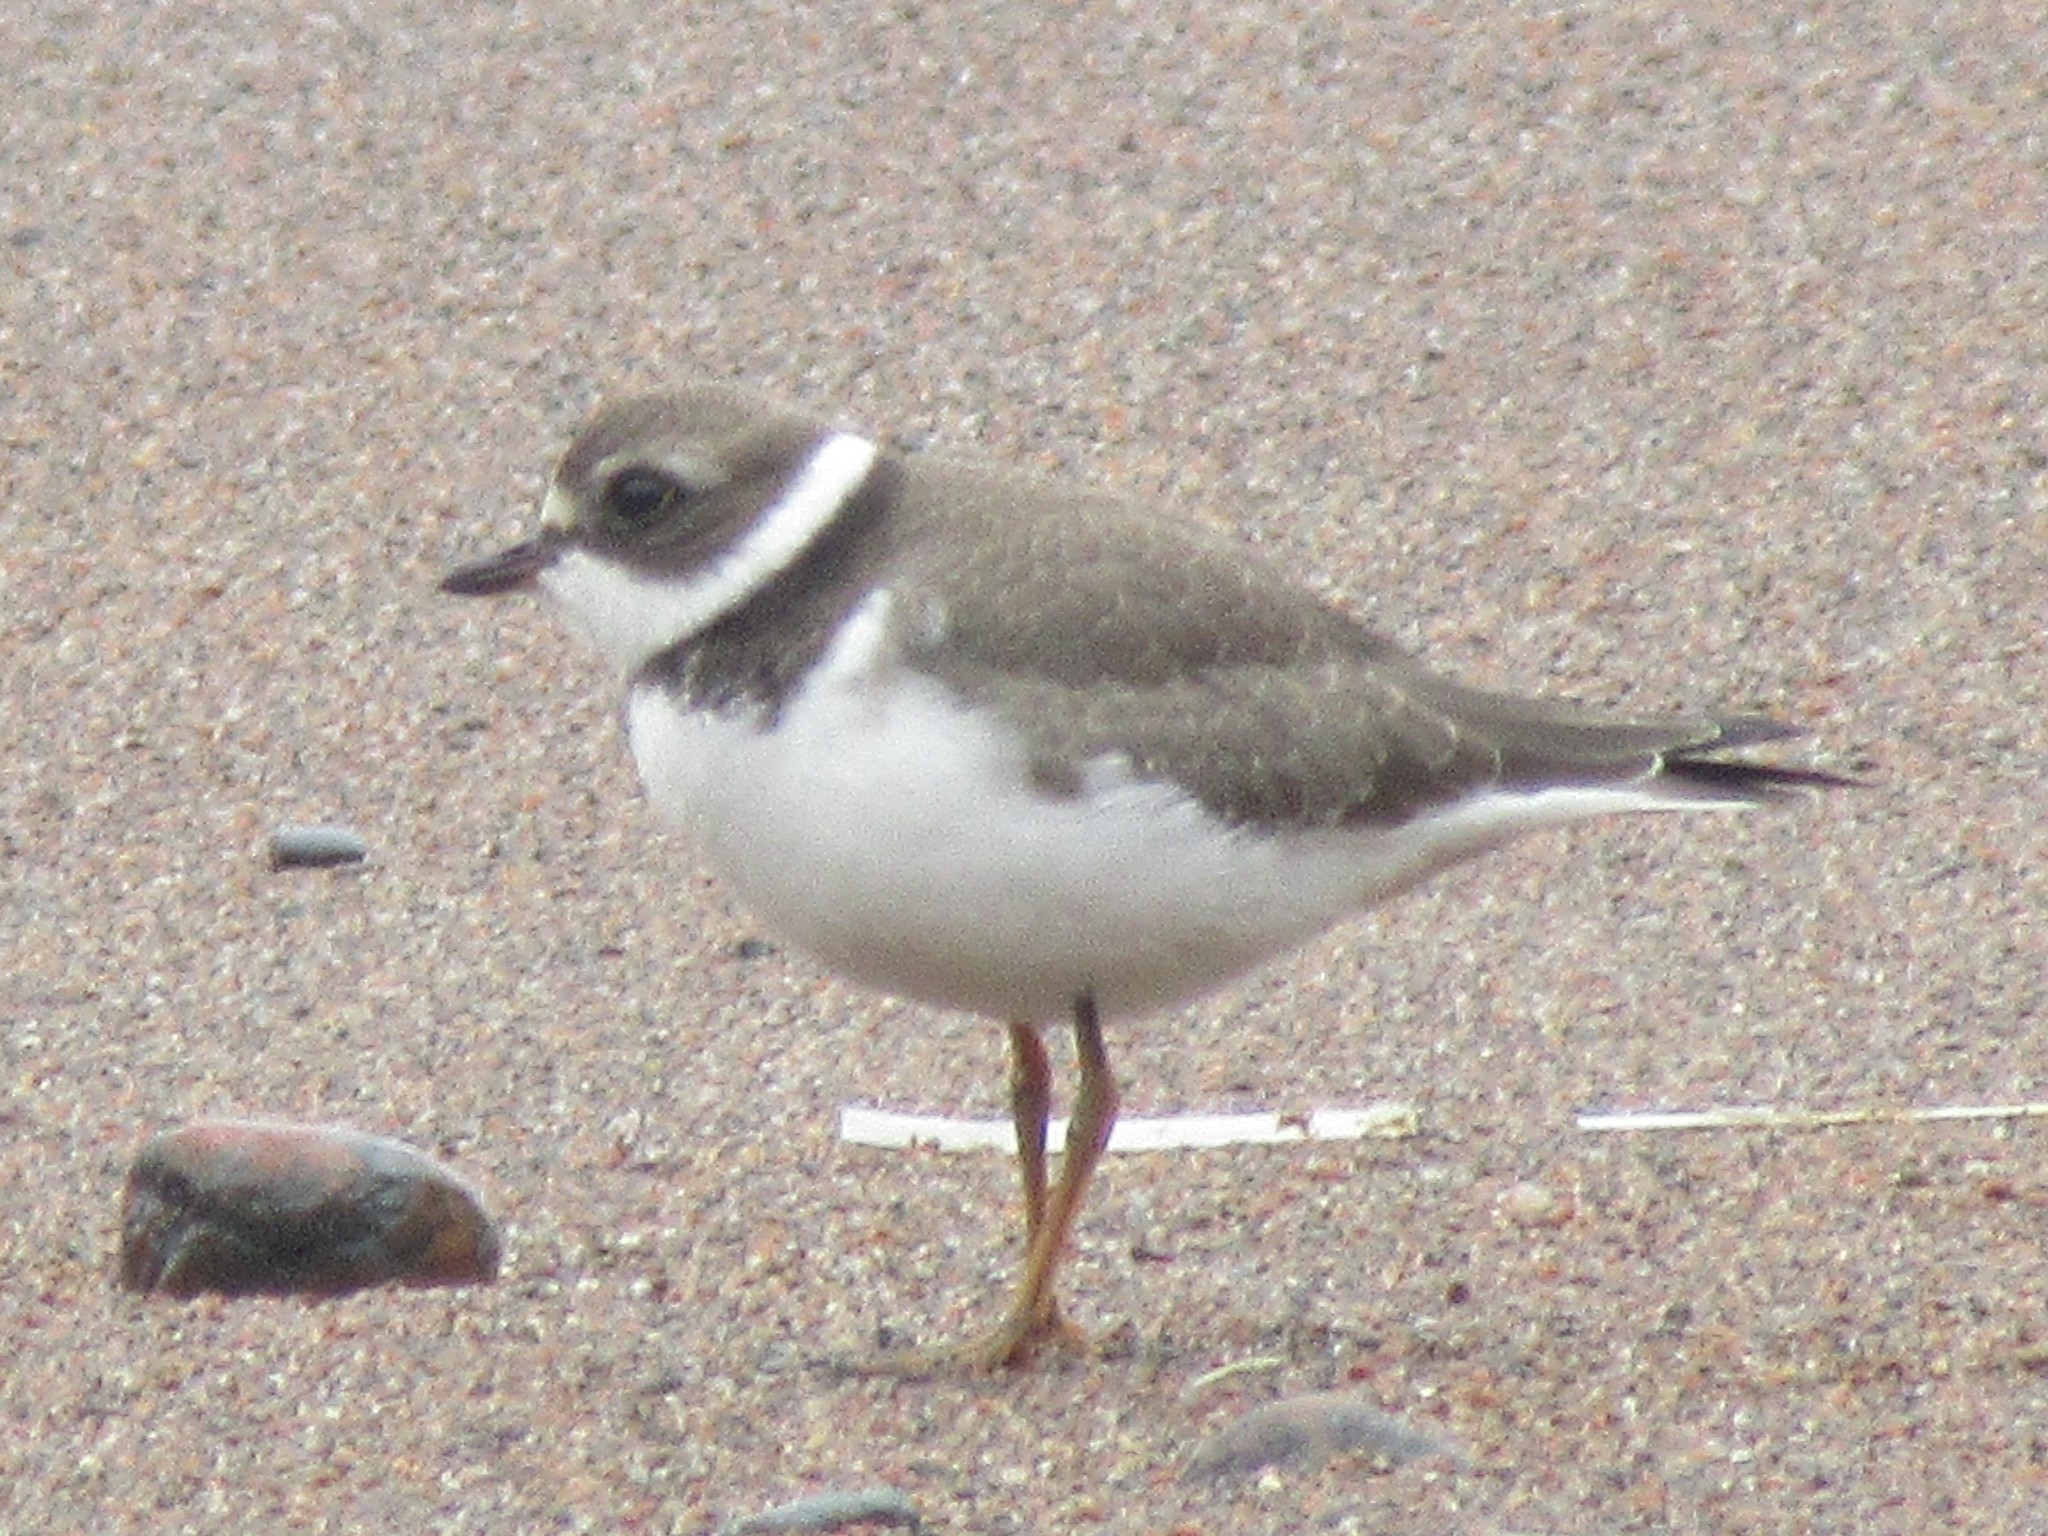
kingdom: Animalia
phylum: Chordata
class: Aves
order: Charadriiformes
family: Charadriidae
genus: Charadrius
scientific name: Charadrius semipalmatus
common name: Semipalmated plover
